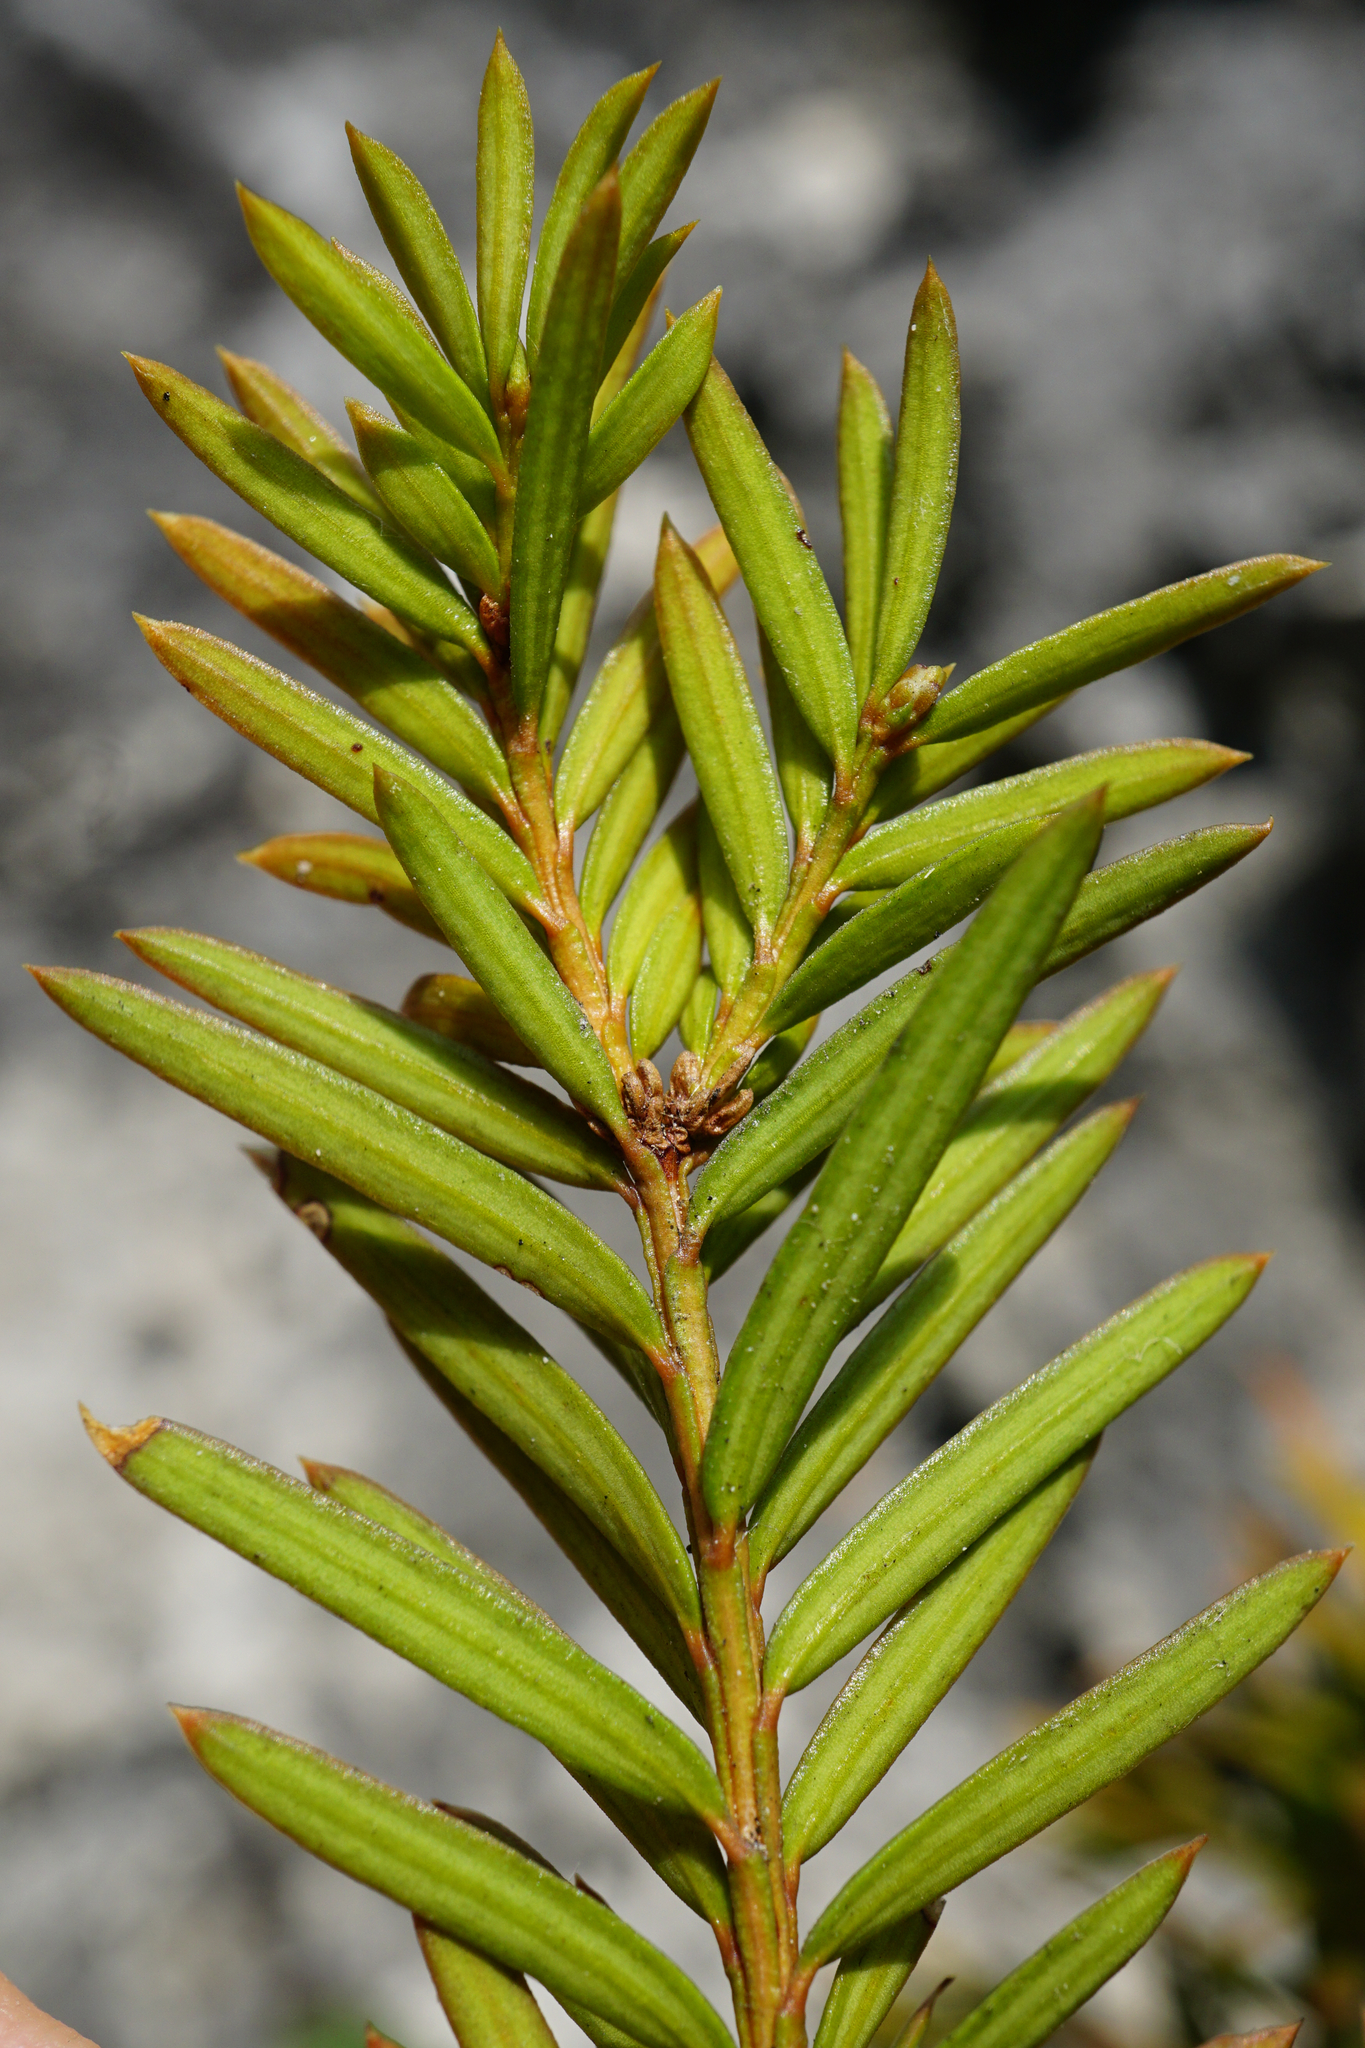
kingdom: Plantae
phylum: Tracheophyta
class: Pinopsida
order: Pinales
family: Taxaceae
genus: Taxus
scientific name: Taxus baccata
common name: Yew
